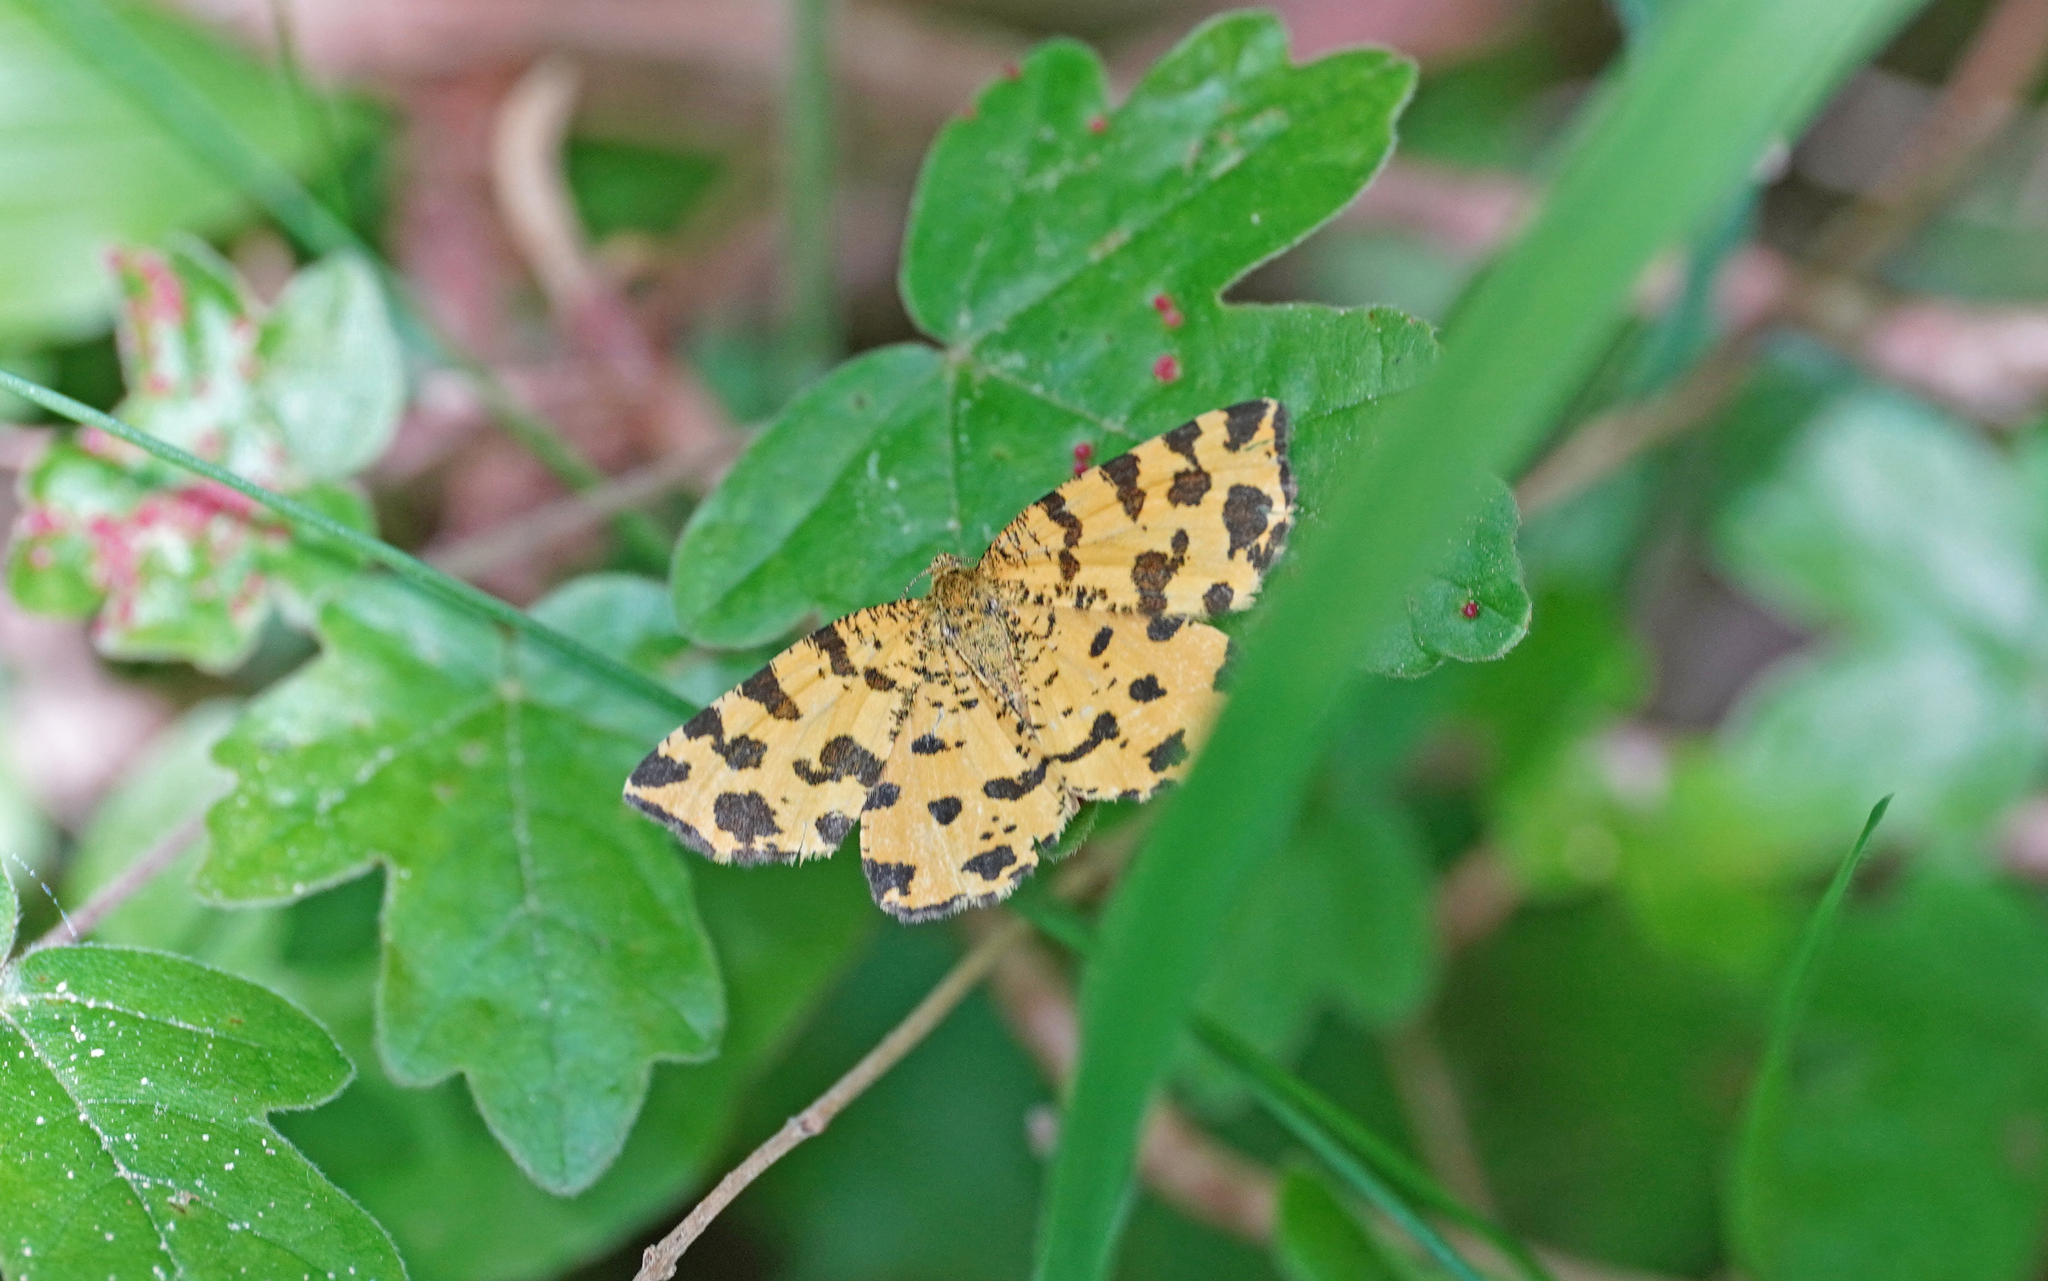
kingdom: Animalia
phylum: Arthropoda
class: Insecta
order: Lepidoptera
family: Geometridae
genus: Pseudopanthera
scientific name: Pseudopanthera macularia
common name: Speckled yellow
